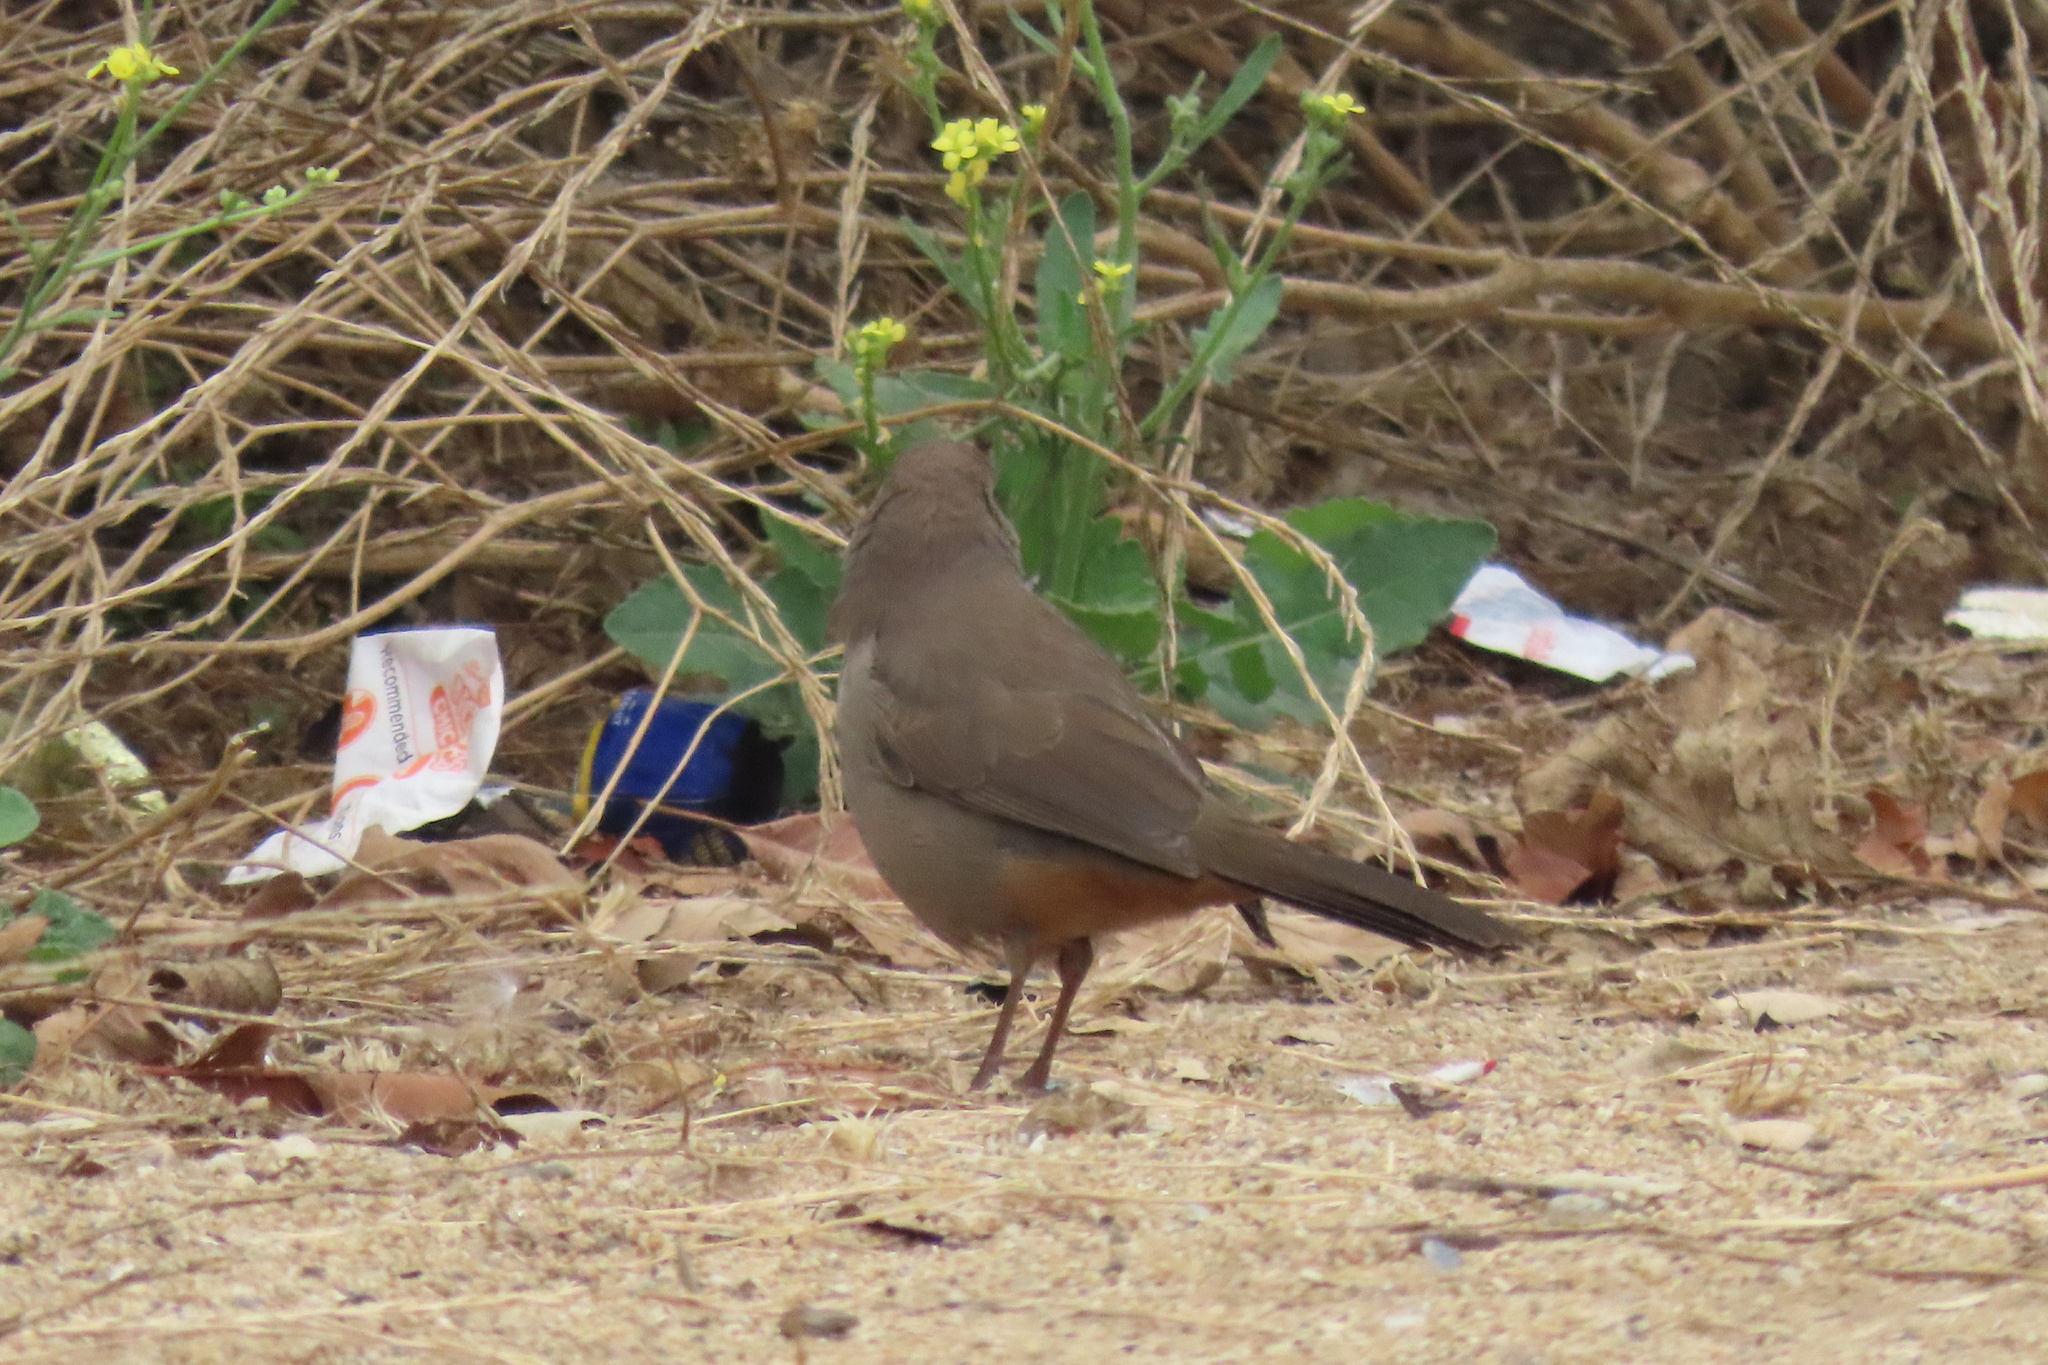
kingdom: Animalia
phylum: Chordata
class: Aves
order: Passeriformes
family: Passerellidae
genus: Melozone
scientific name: Melozone crissalis
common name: California towhee
